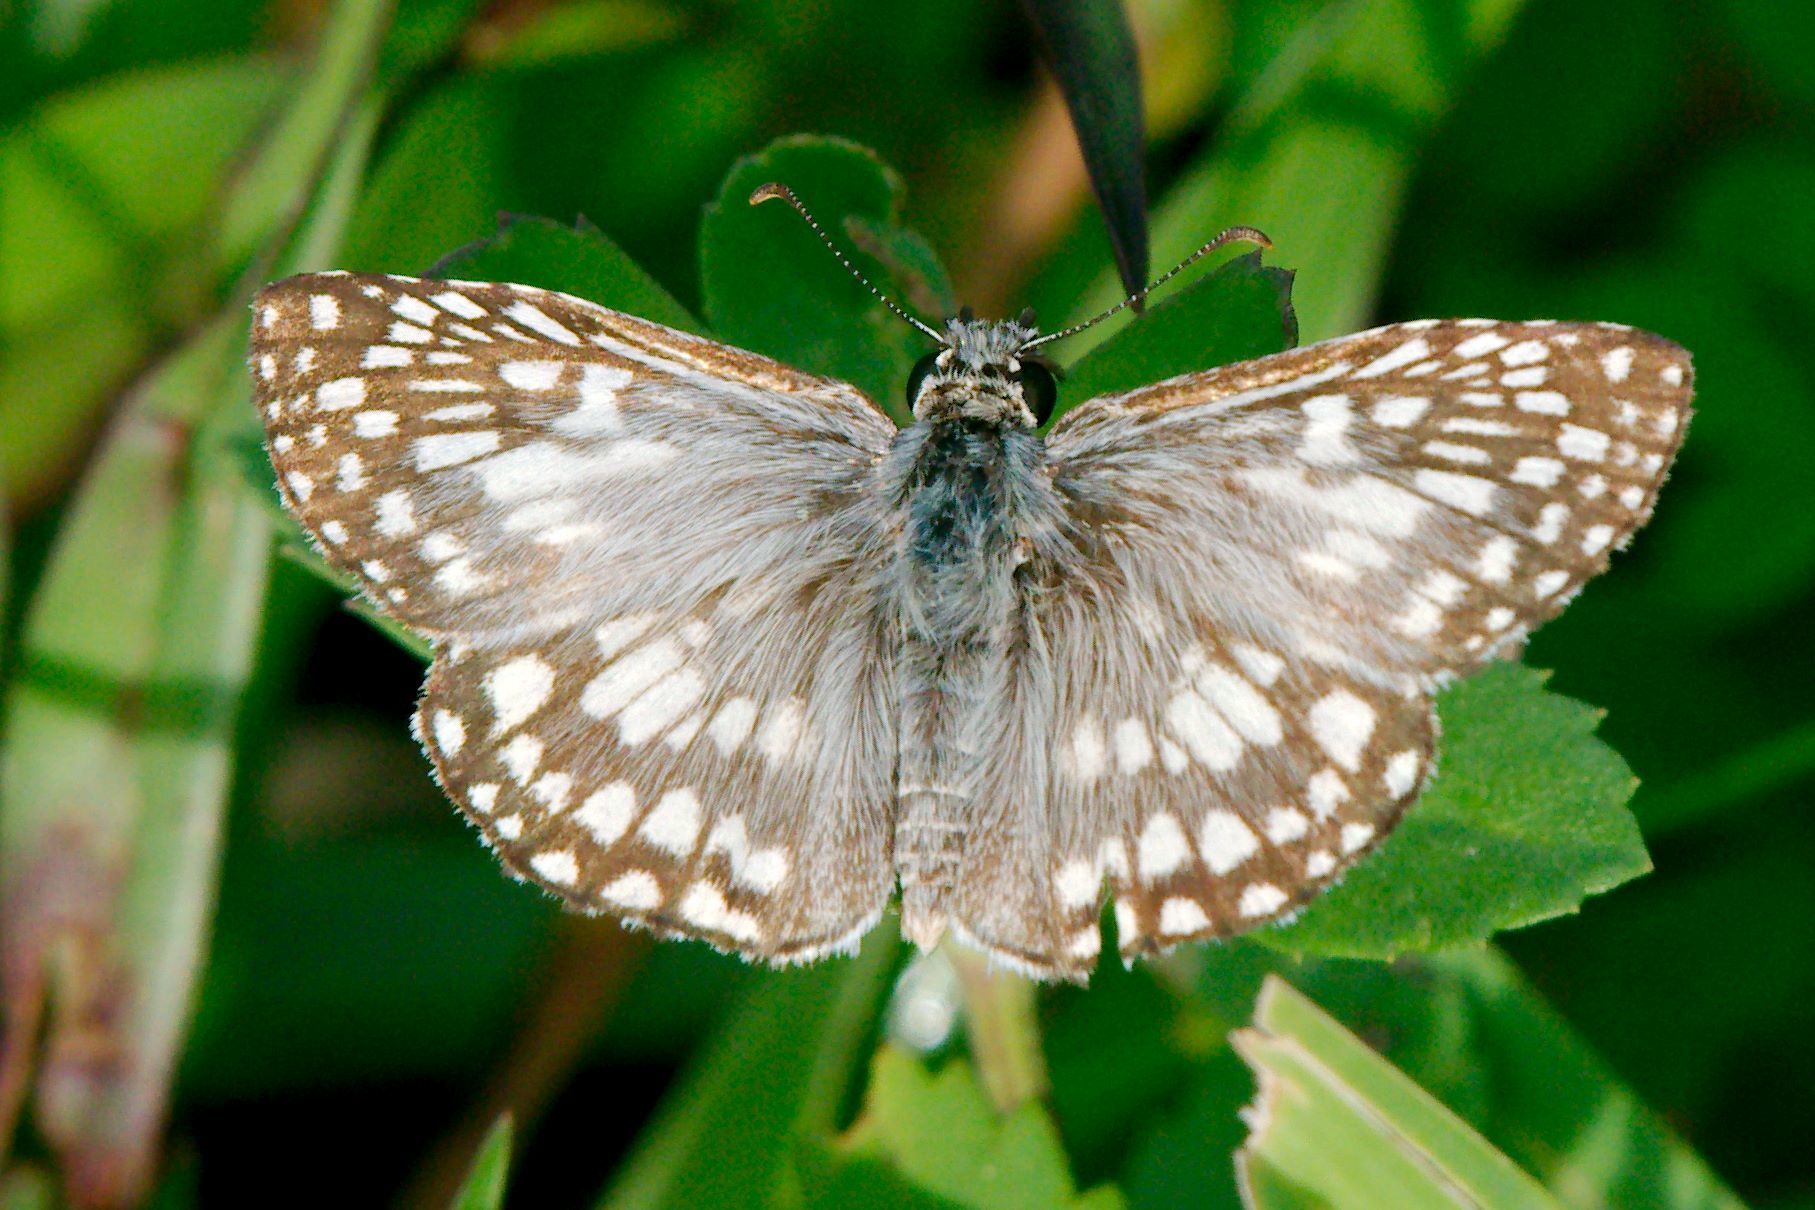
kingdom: Animalia
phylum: Arthropoda
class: Insecta
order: Lepidoptera
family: Hesperiidae
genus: Pyrgus
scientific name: Pyrgus oileus
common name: Tropical checkered-skipper
